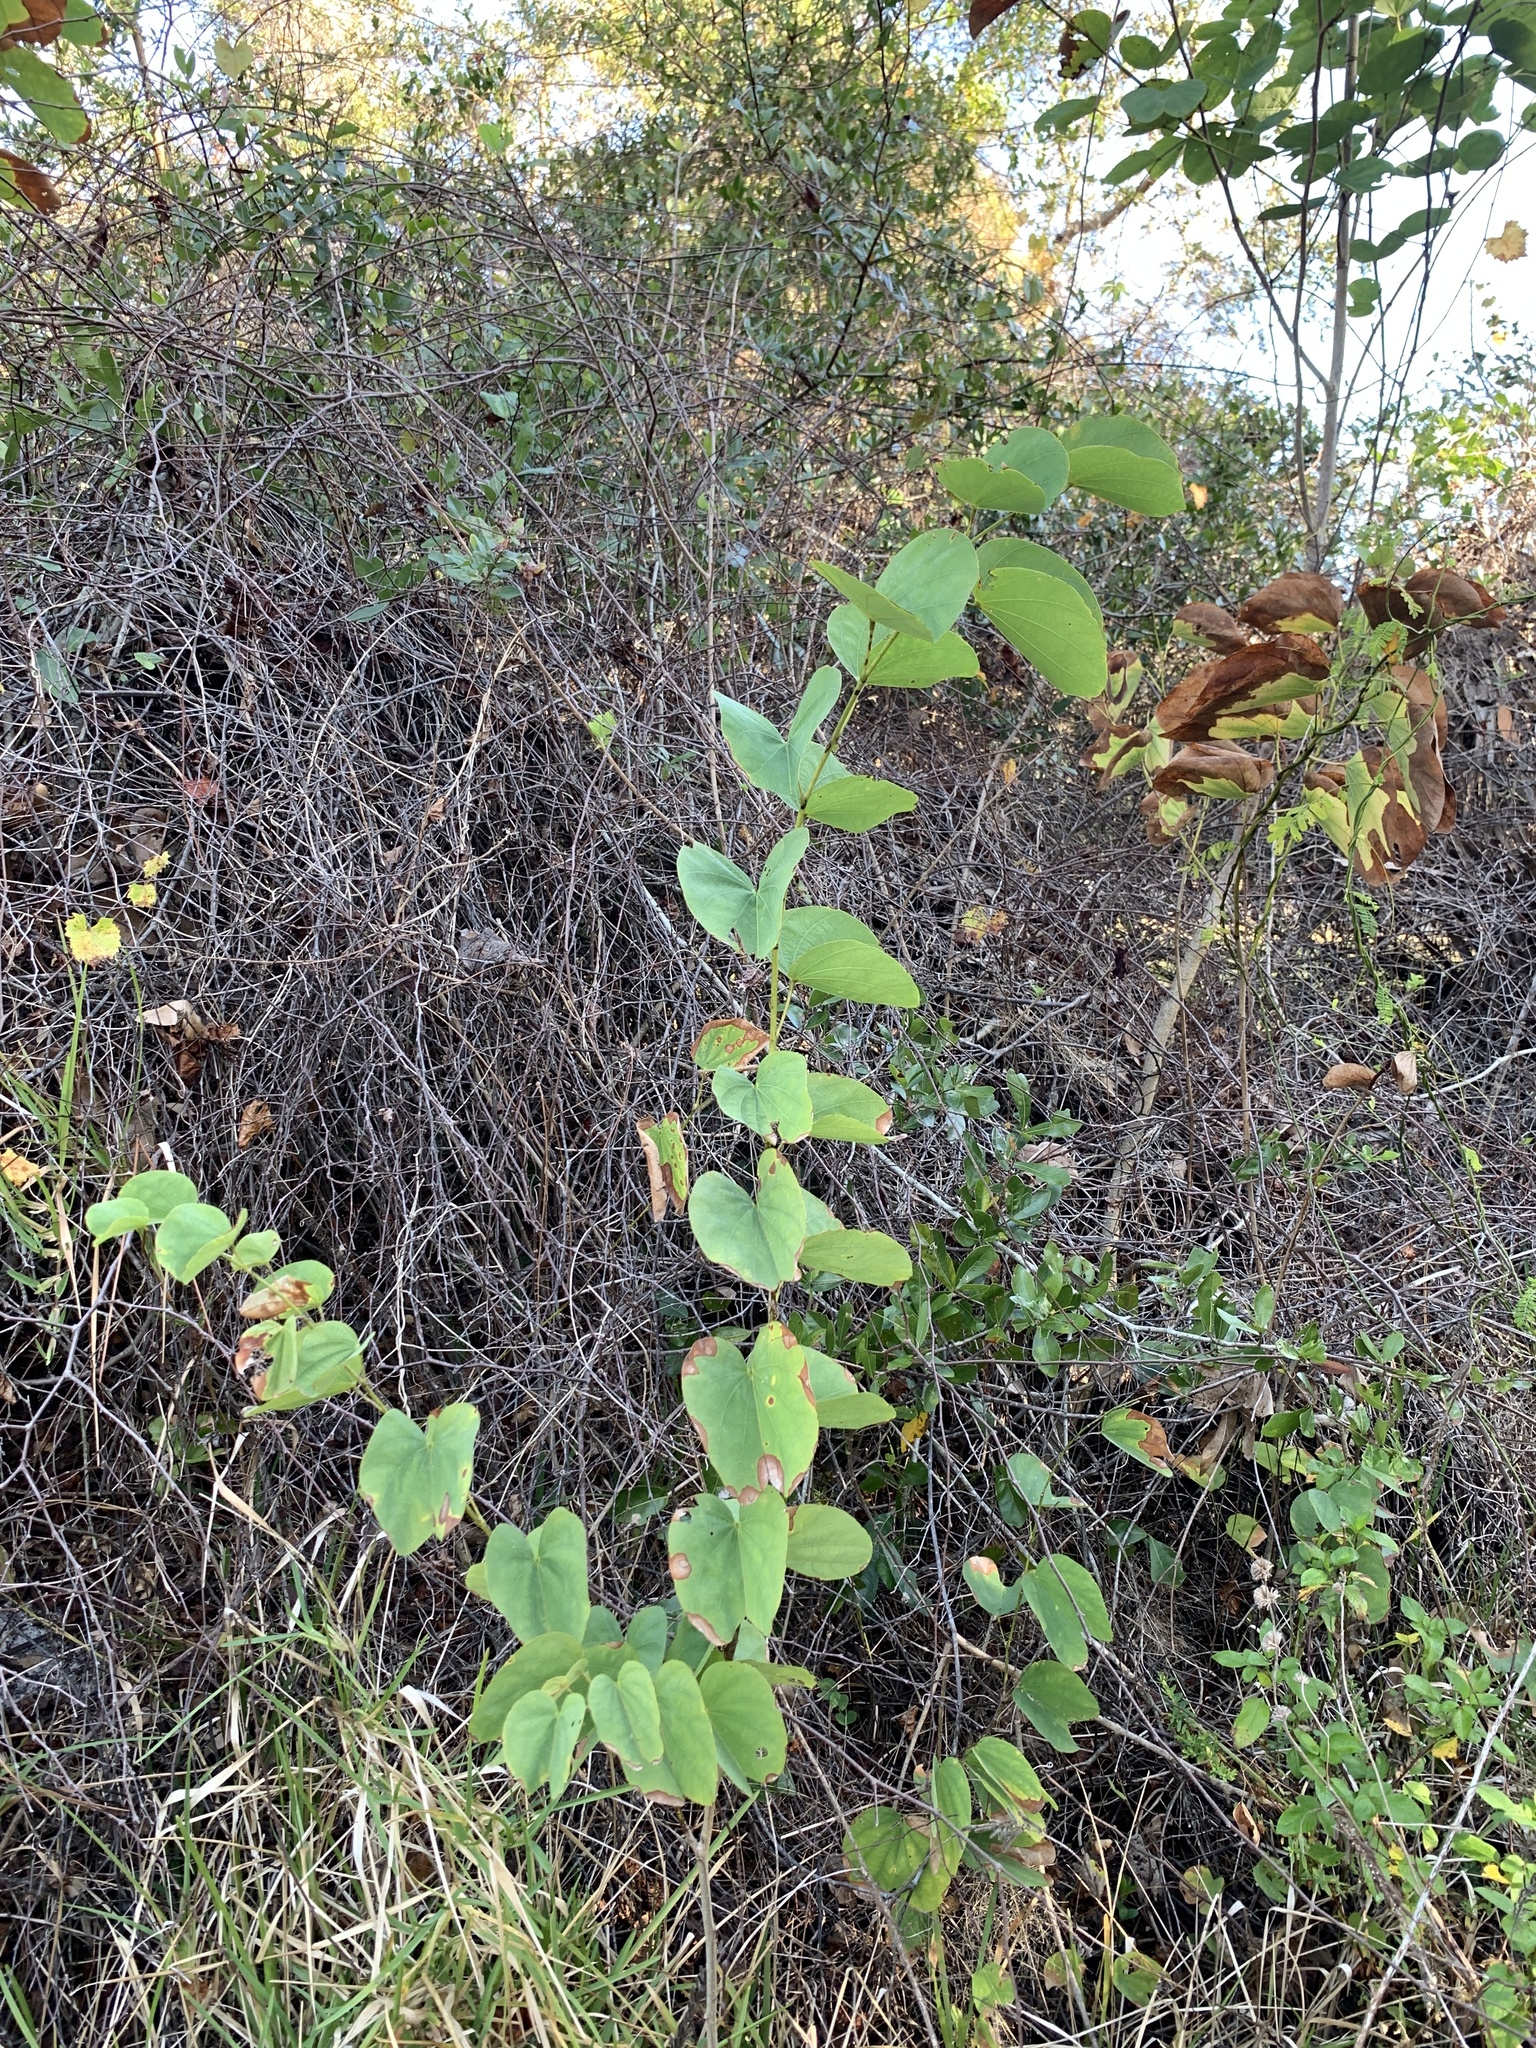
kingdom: Plantae
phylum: Tracheophyta
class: Magnoliopsida
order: Fabales
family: Fabaceae
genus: Bauhinia
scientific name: Bauhinia variegata
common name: Mountain ebony
